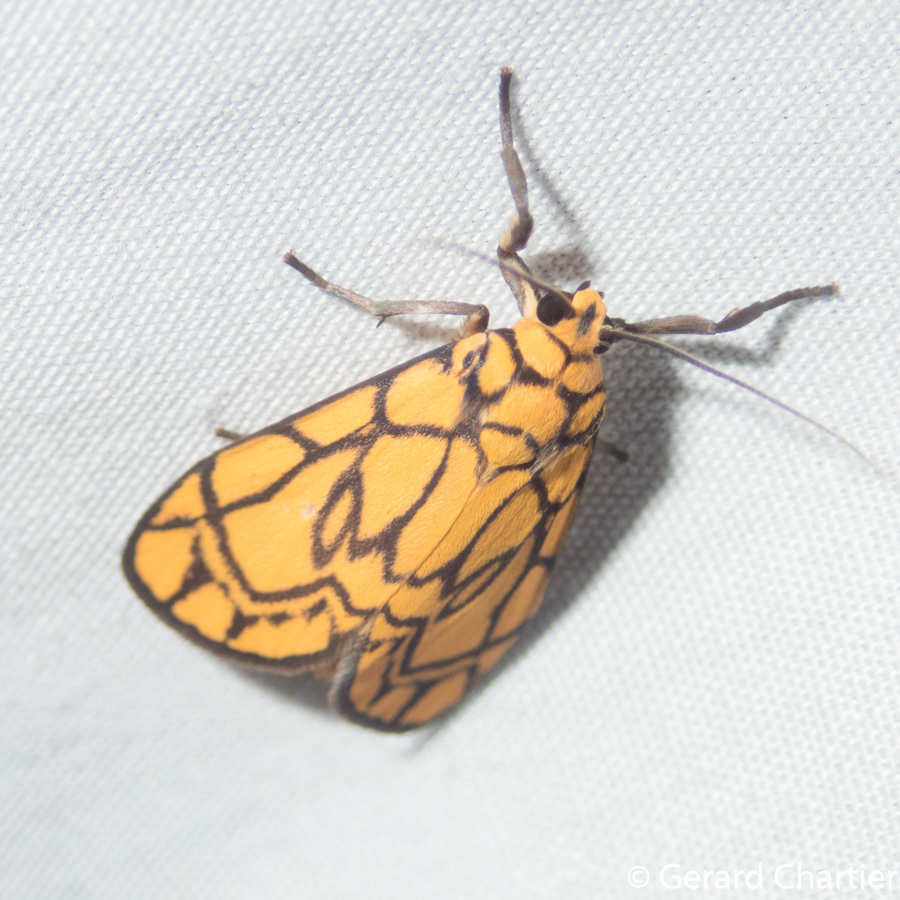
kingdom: Animalia
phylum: Arthropoda
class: Insecta
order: Lepidoptera
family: Erebidae
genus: Cyme
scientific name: Cyme euprepioides
